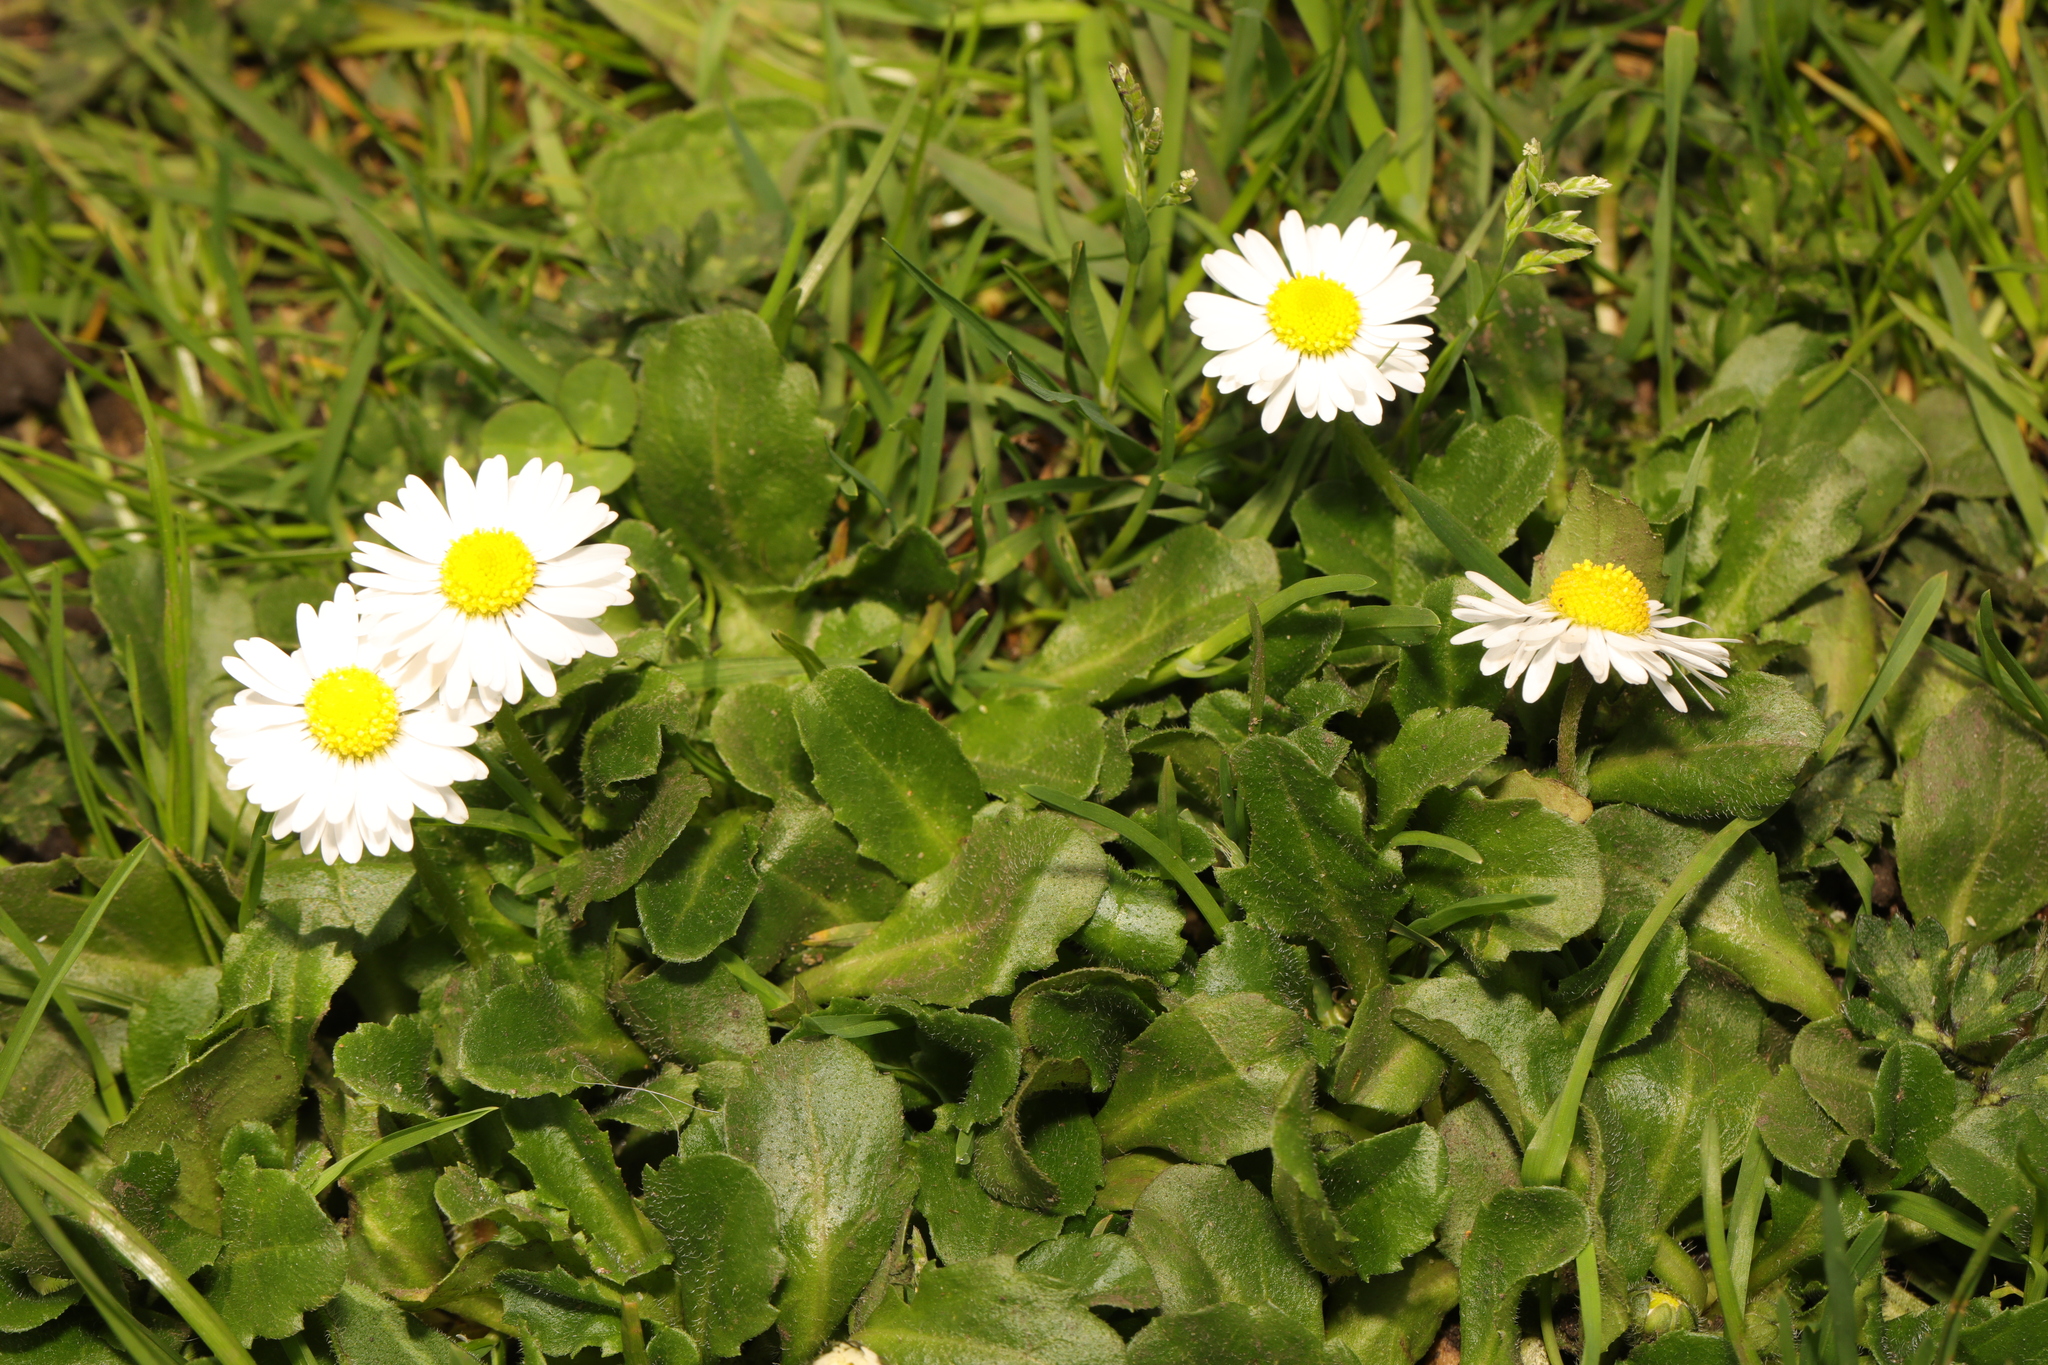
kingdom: Plantae
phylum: Tracheophyta
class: Magnoliopsida
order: Asterales
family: Asteraceae
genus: Bellis
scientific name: Bellis perennis
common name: Lawndaisy
